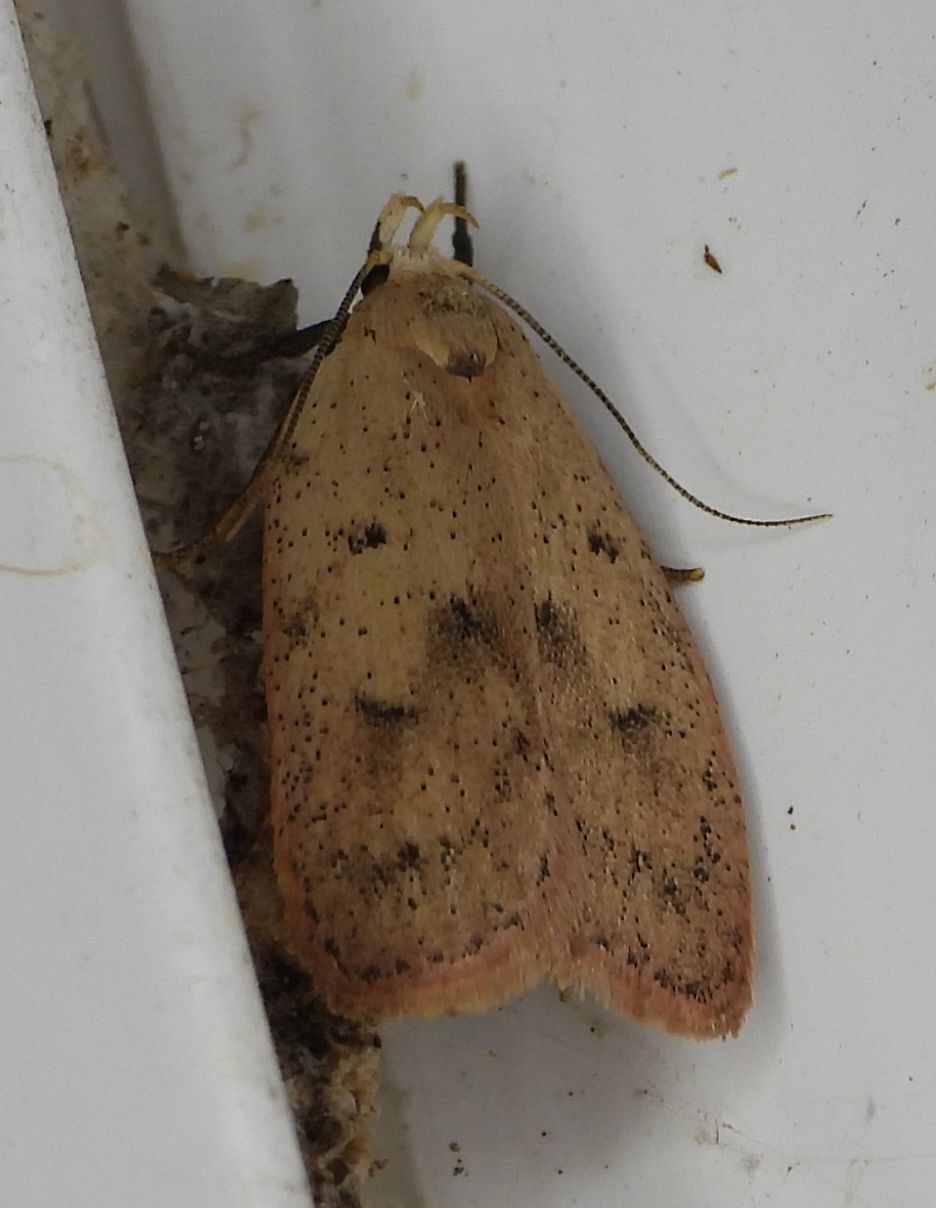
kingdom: Animalia
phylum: Arthropoda
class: Insecta
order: Lepidoptera
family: Peleopodidae
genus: Machimia
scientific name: Machimia tentoriferella
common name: Gold-striped leaftier moth
